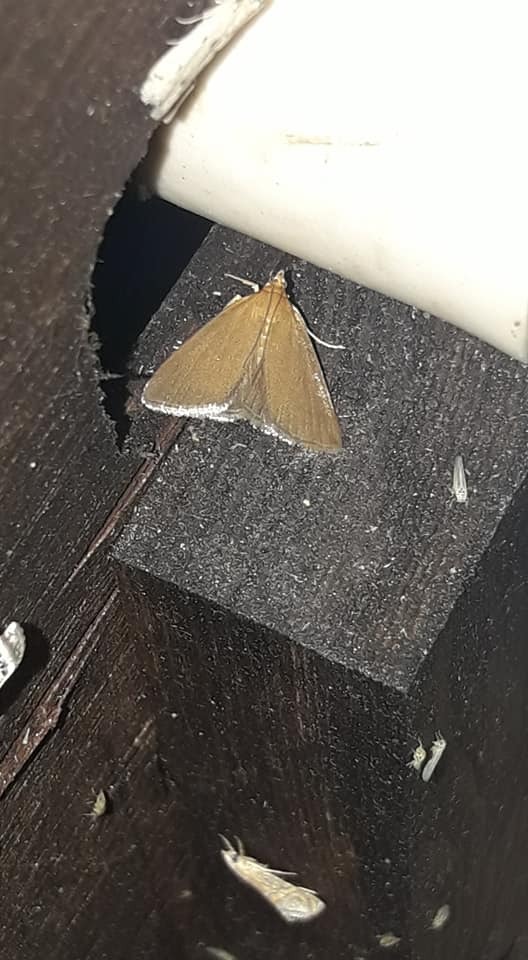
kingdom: Animalia
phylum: Arthropoda
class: Insecta
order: Lepidoptera
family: Crambidae
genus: Evergestis
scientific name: Evergestis aenealis
